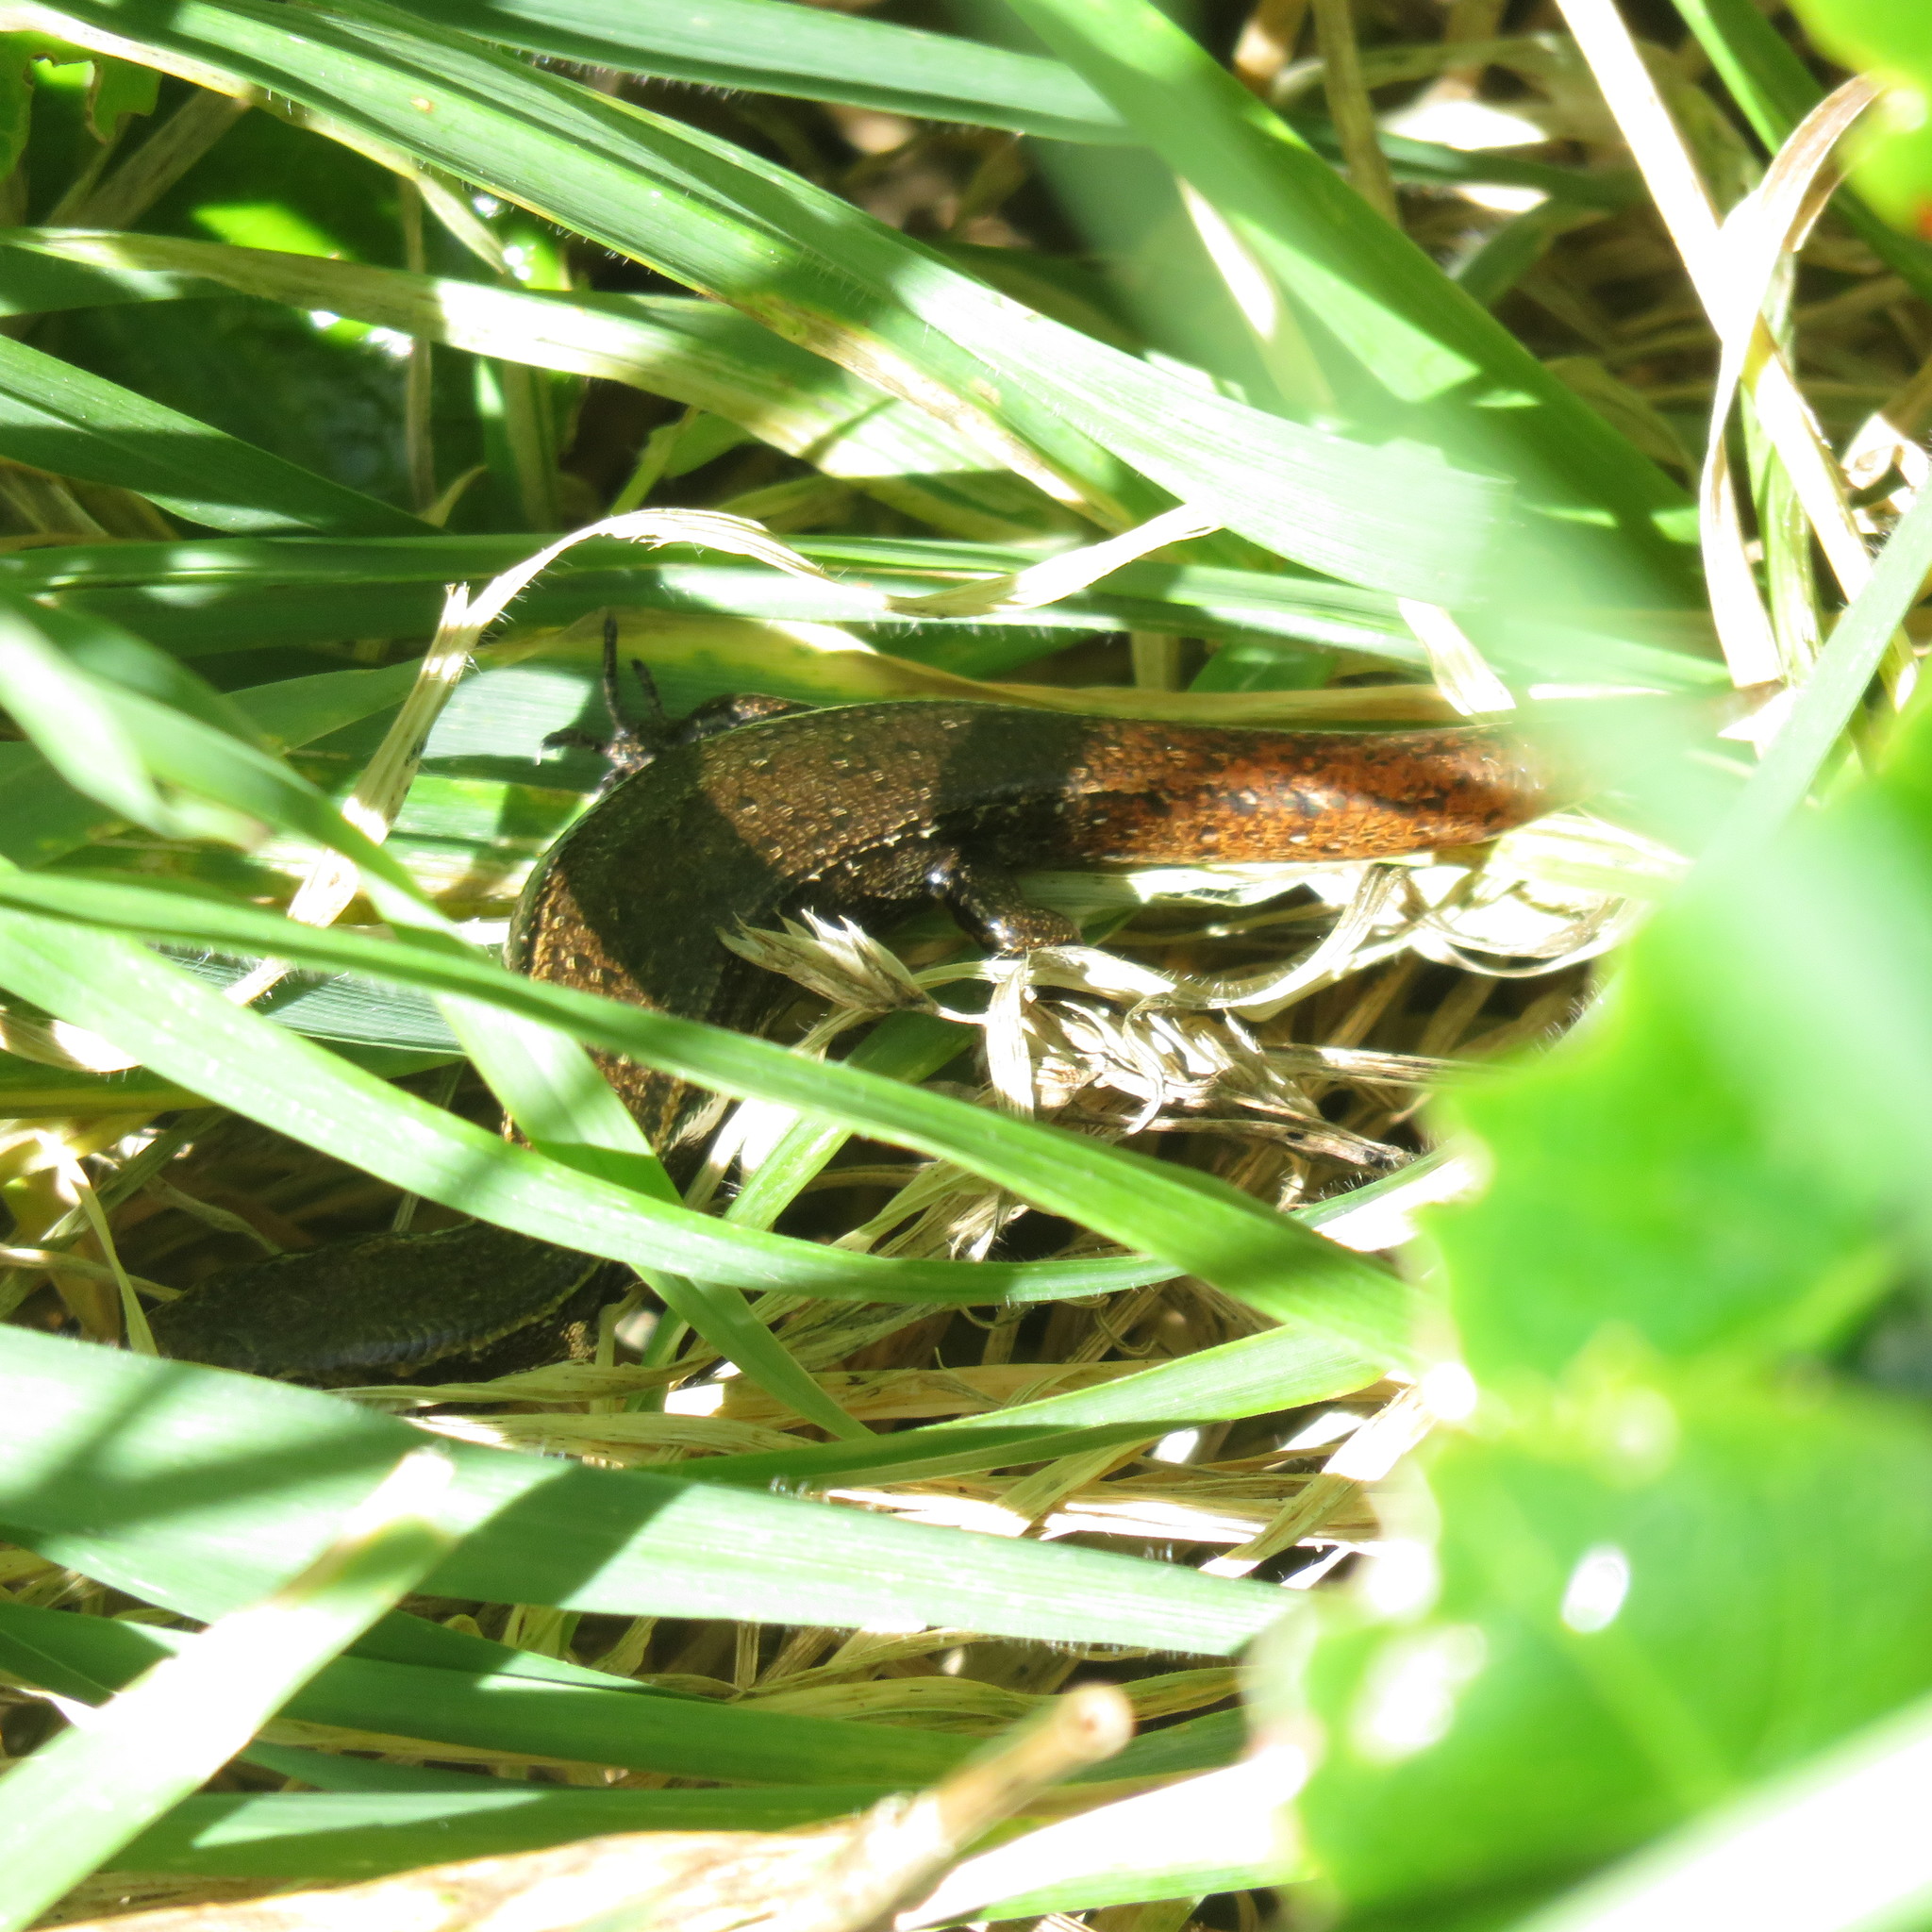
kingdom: Animalia
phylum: Chordata
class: Squamata
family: Scincidae
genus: Oligosoma
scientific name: Oligosoma aeneum
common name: Copper skink
